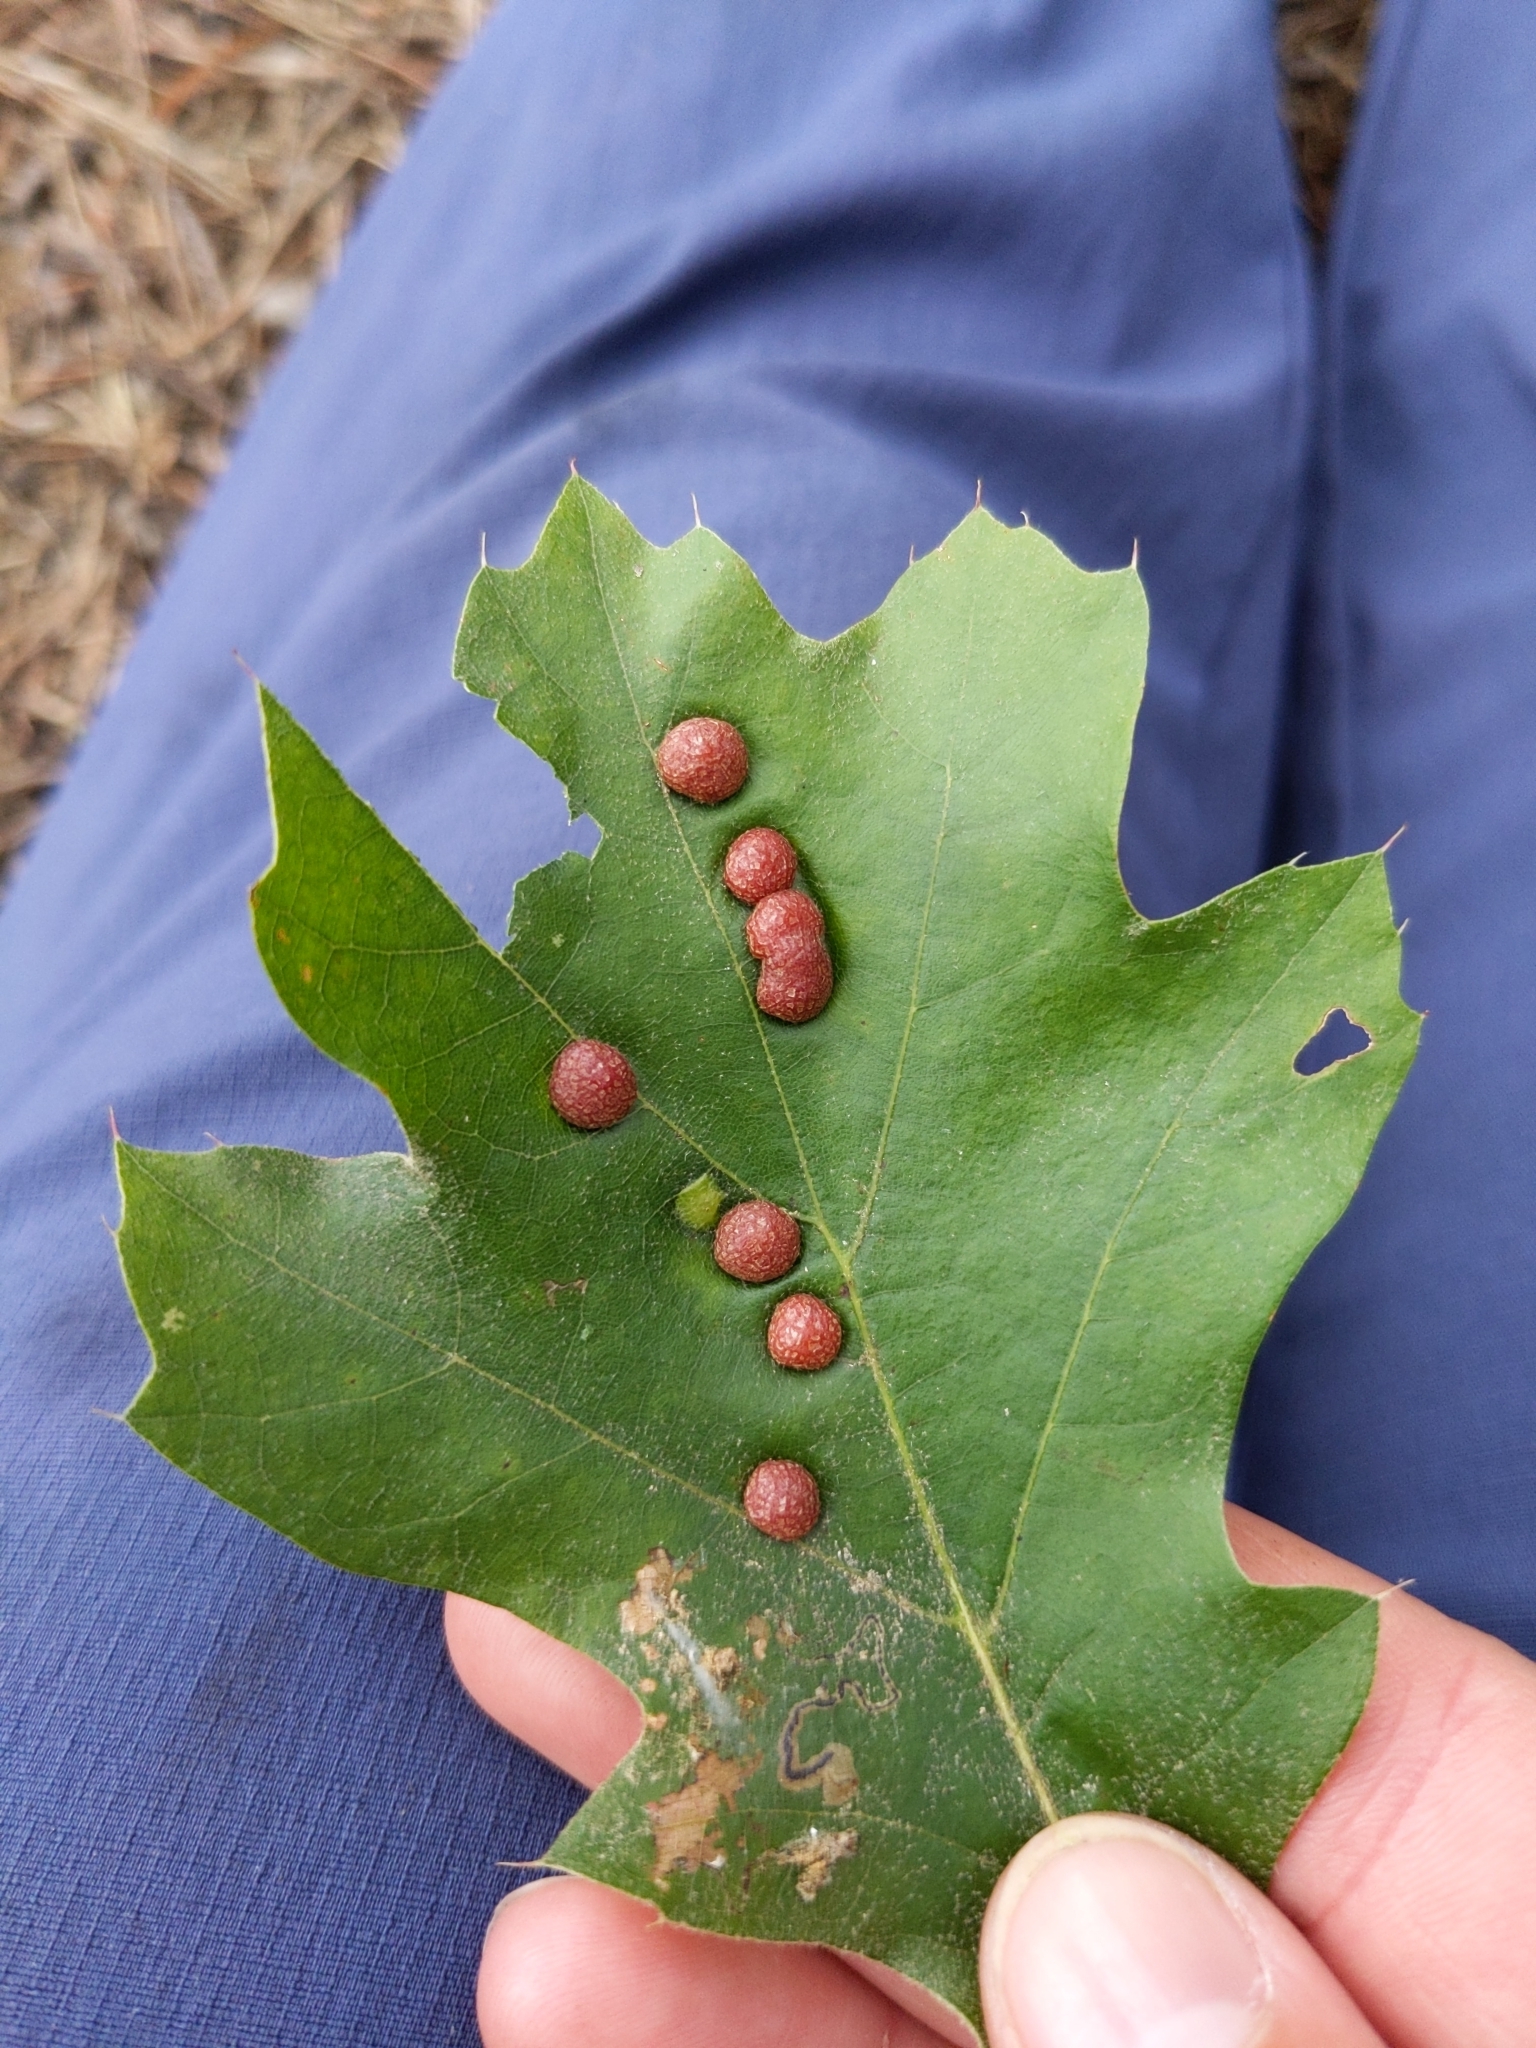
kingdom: Animalia
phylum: Arthropoda
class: Insecta
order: Diptera
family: Cecidomyiidae
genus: Polystepha
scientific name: Polystepha pilulae
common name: Oak leaf gall midge
